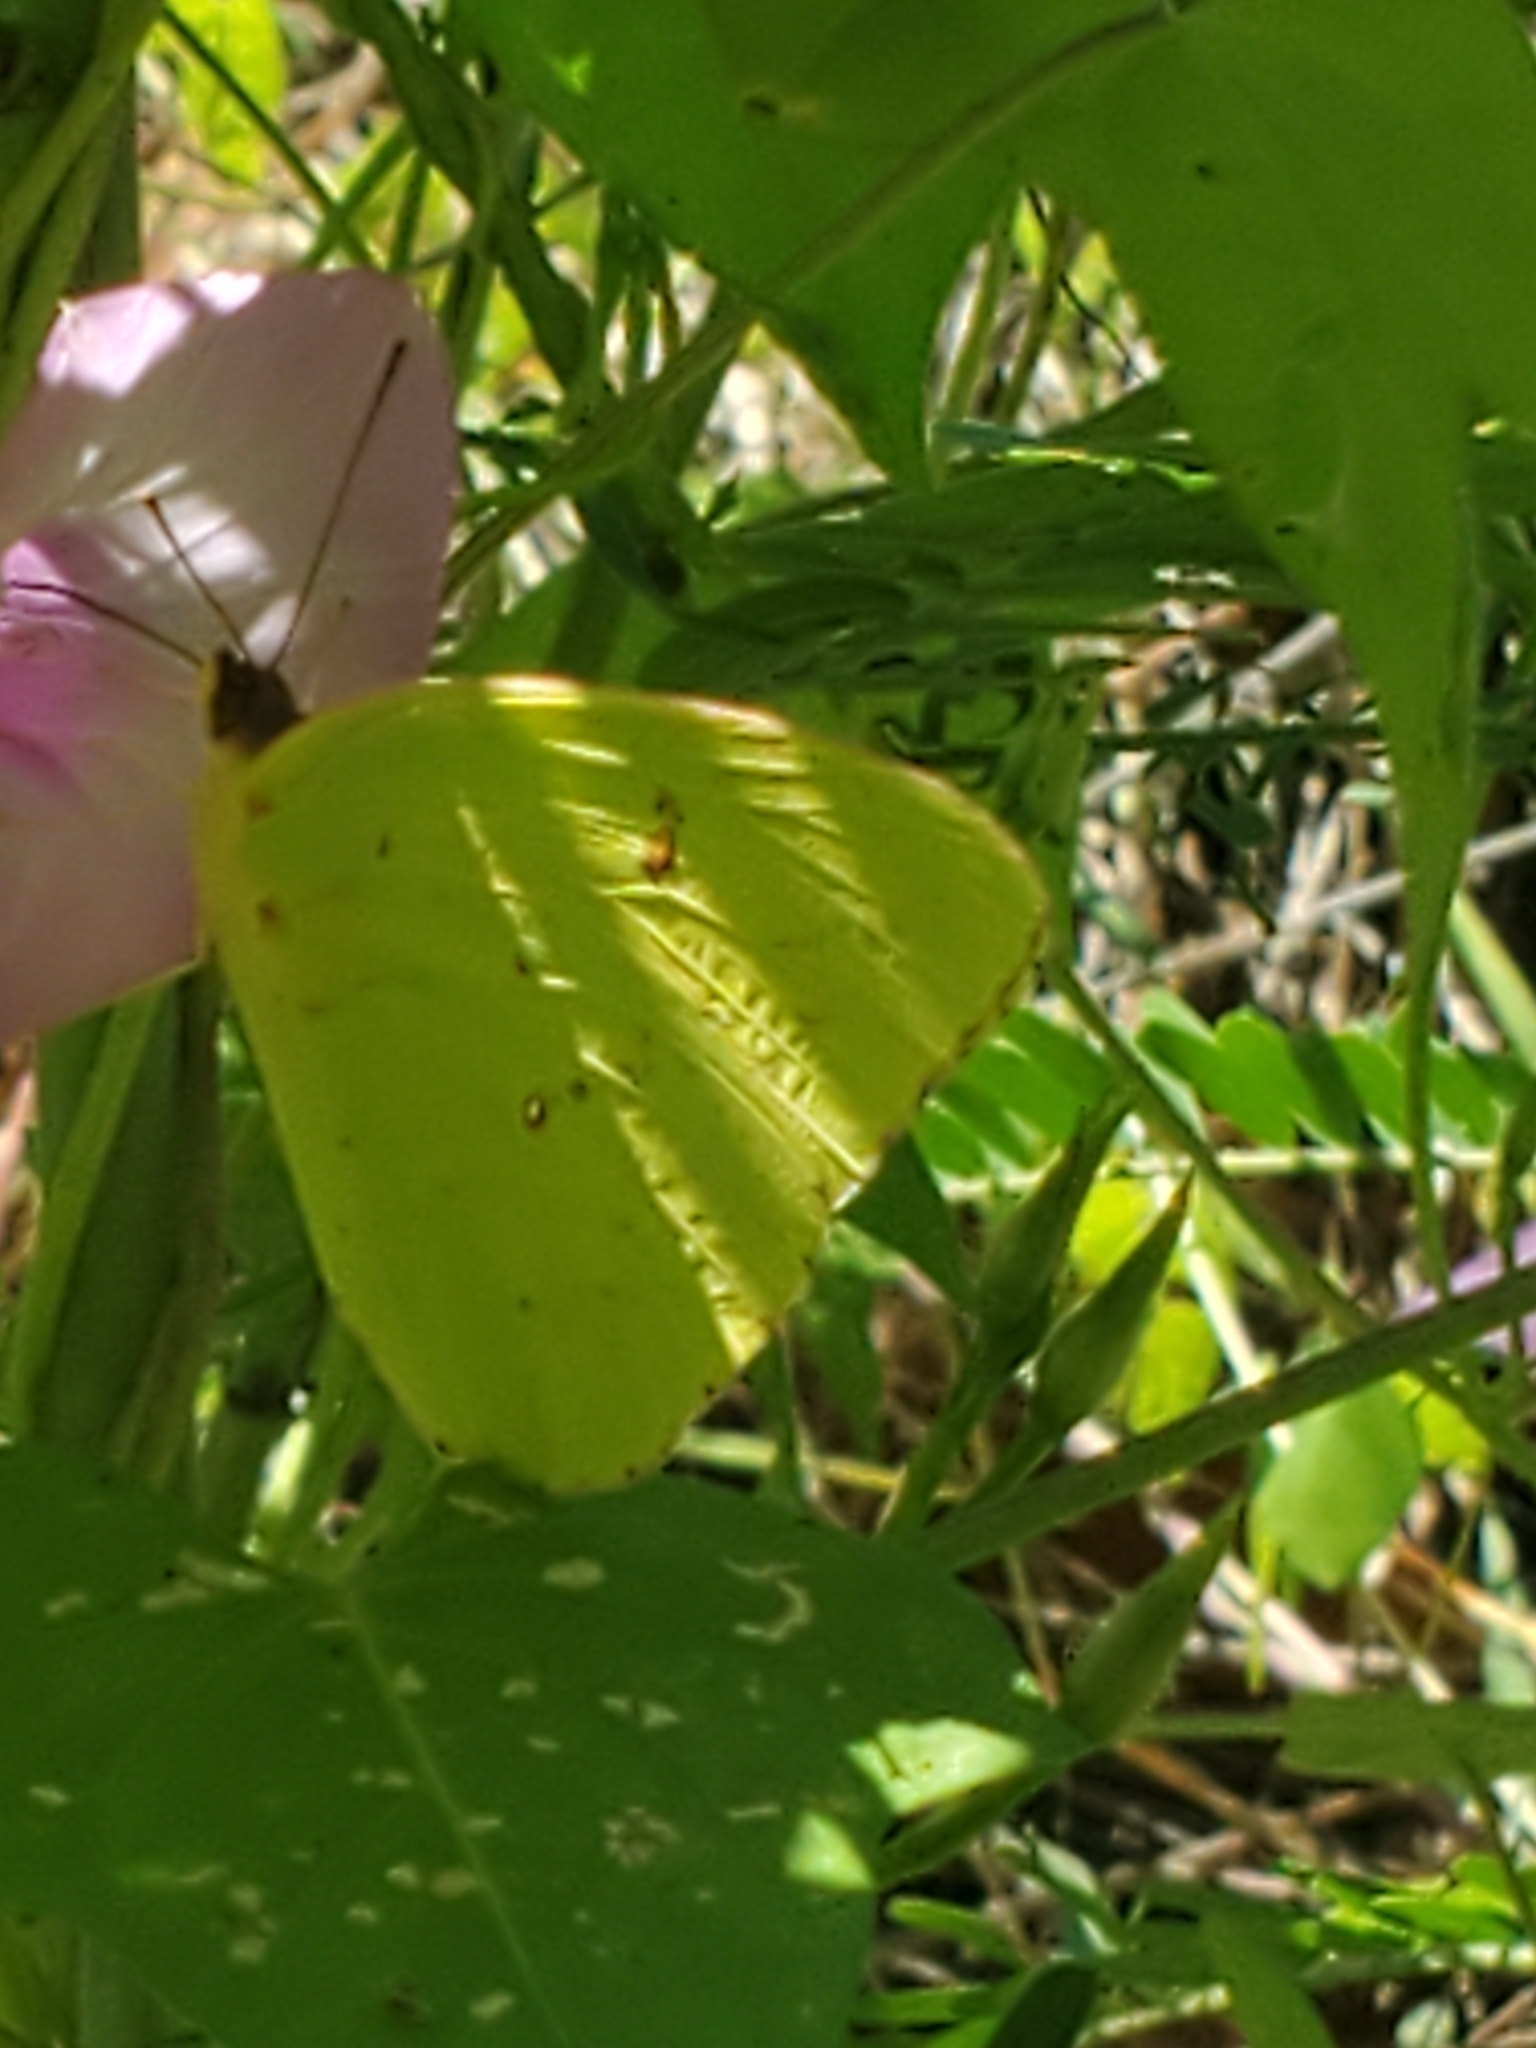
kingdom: Animalia
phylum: Arthropoda
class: Insecta
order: Lepidoptera
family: Pieridae
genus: Phoebis
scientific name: Phoebis sennae
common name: Cloudless sulphur
